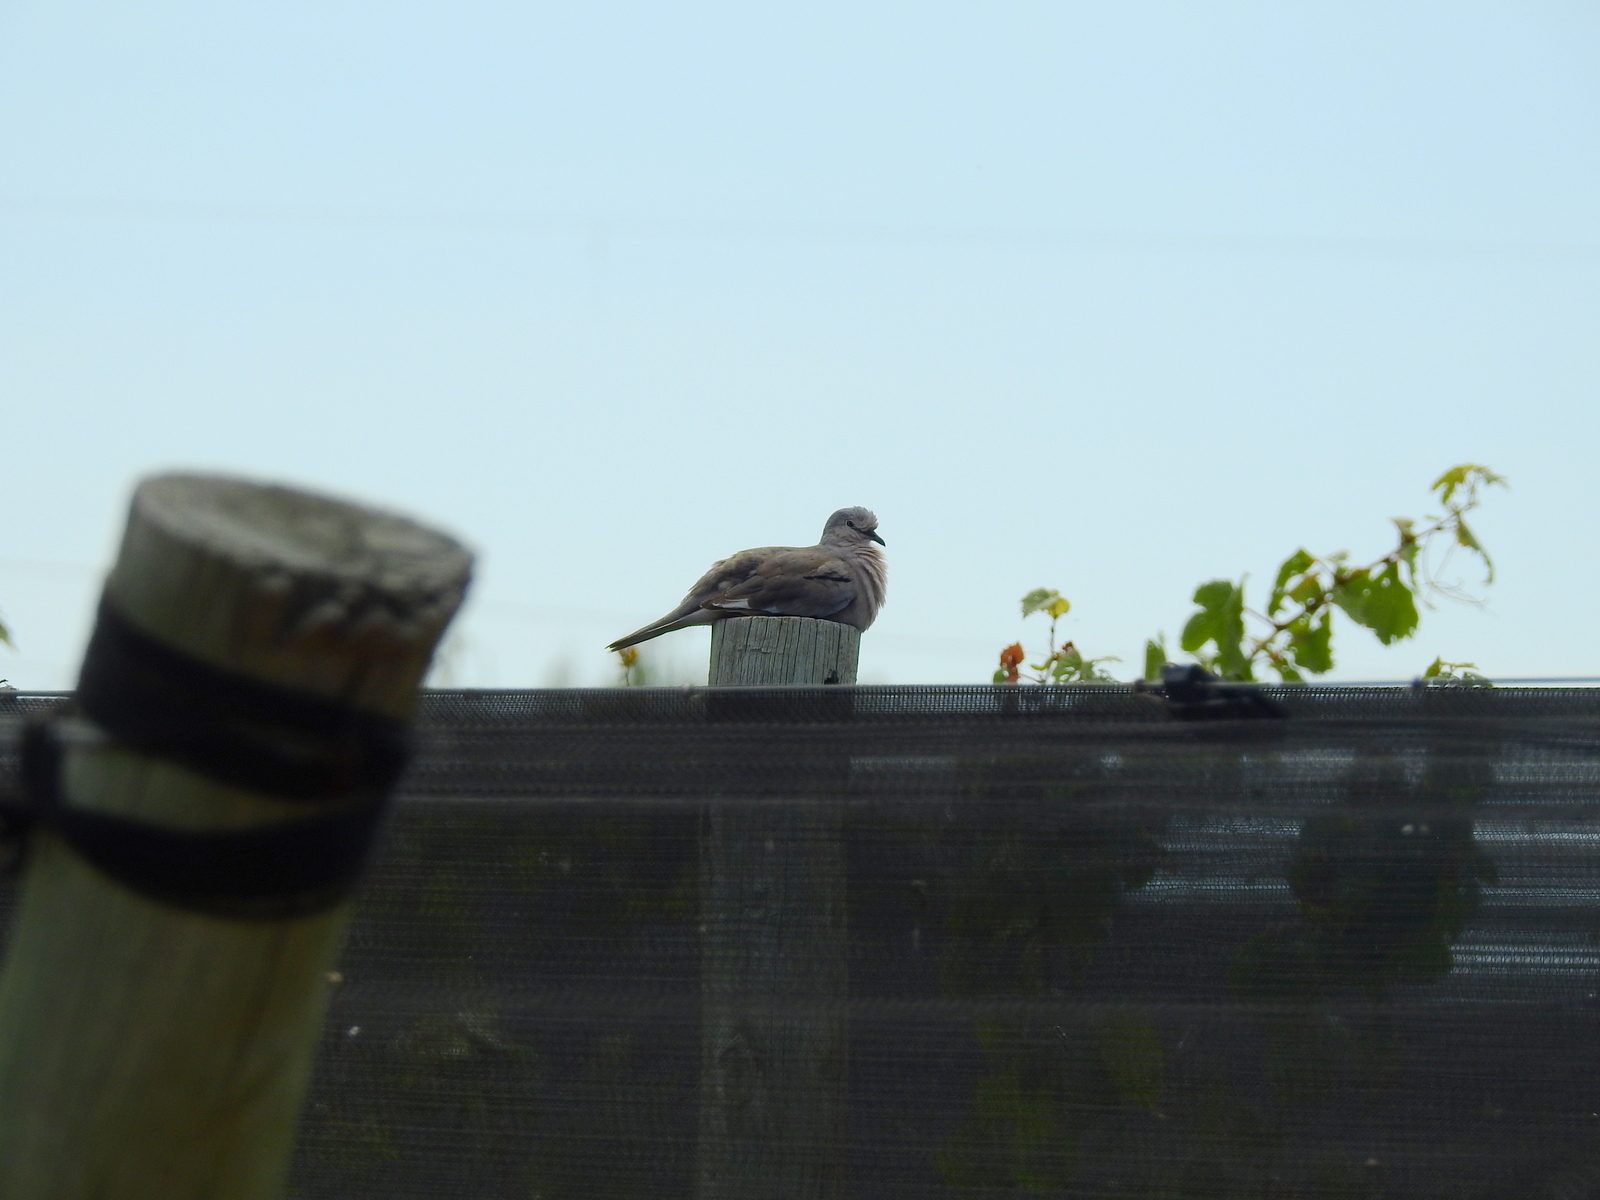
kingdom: Animalia
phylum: Chordata
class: Aves
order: Columbiformes
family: Columbidae
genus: Columbina
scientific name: Columbina picui
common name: Picui ground dove
